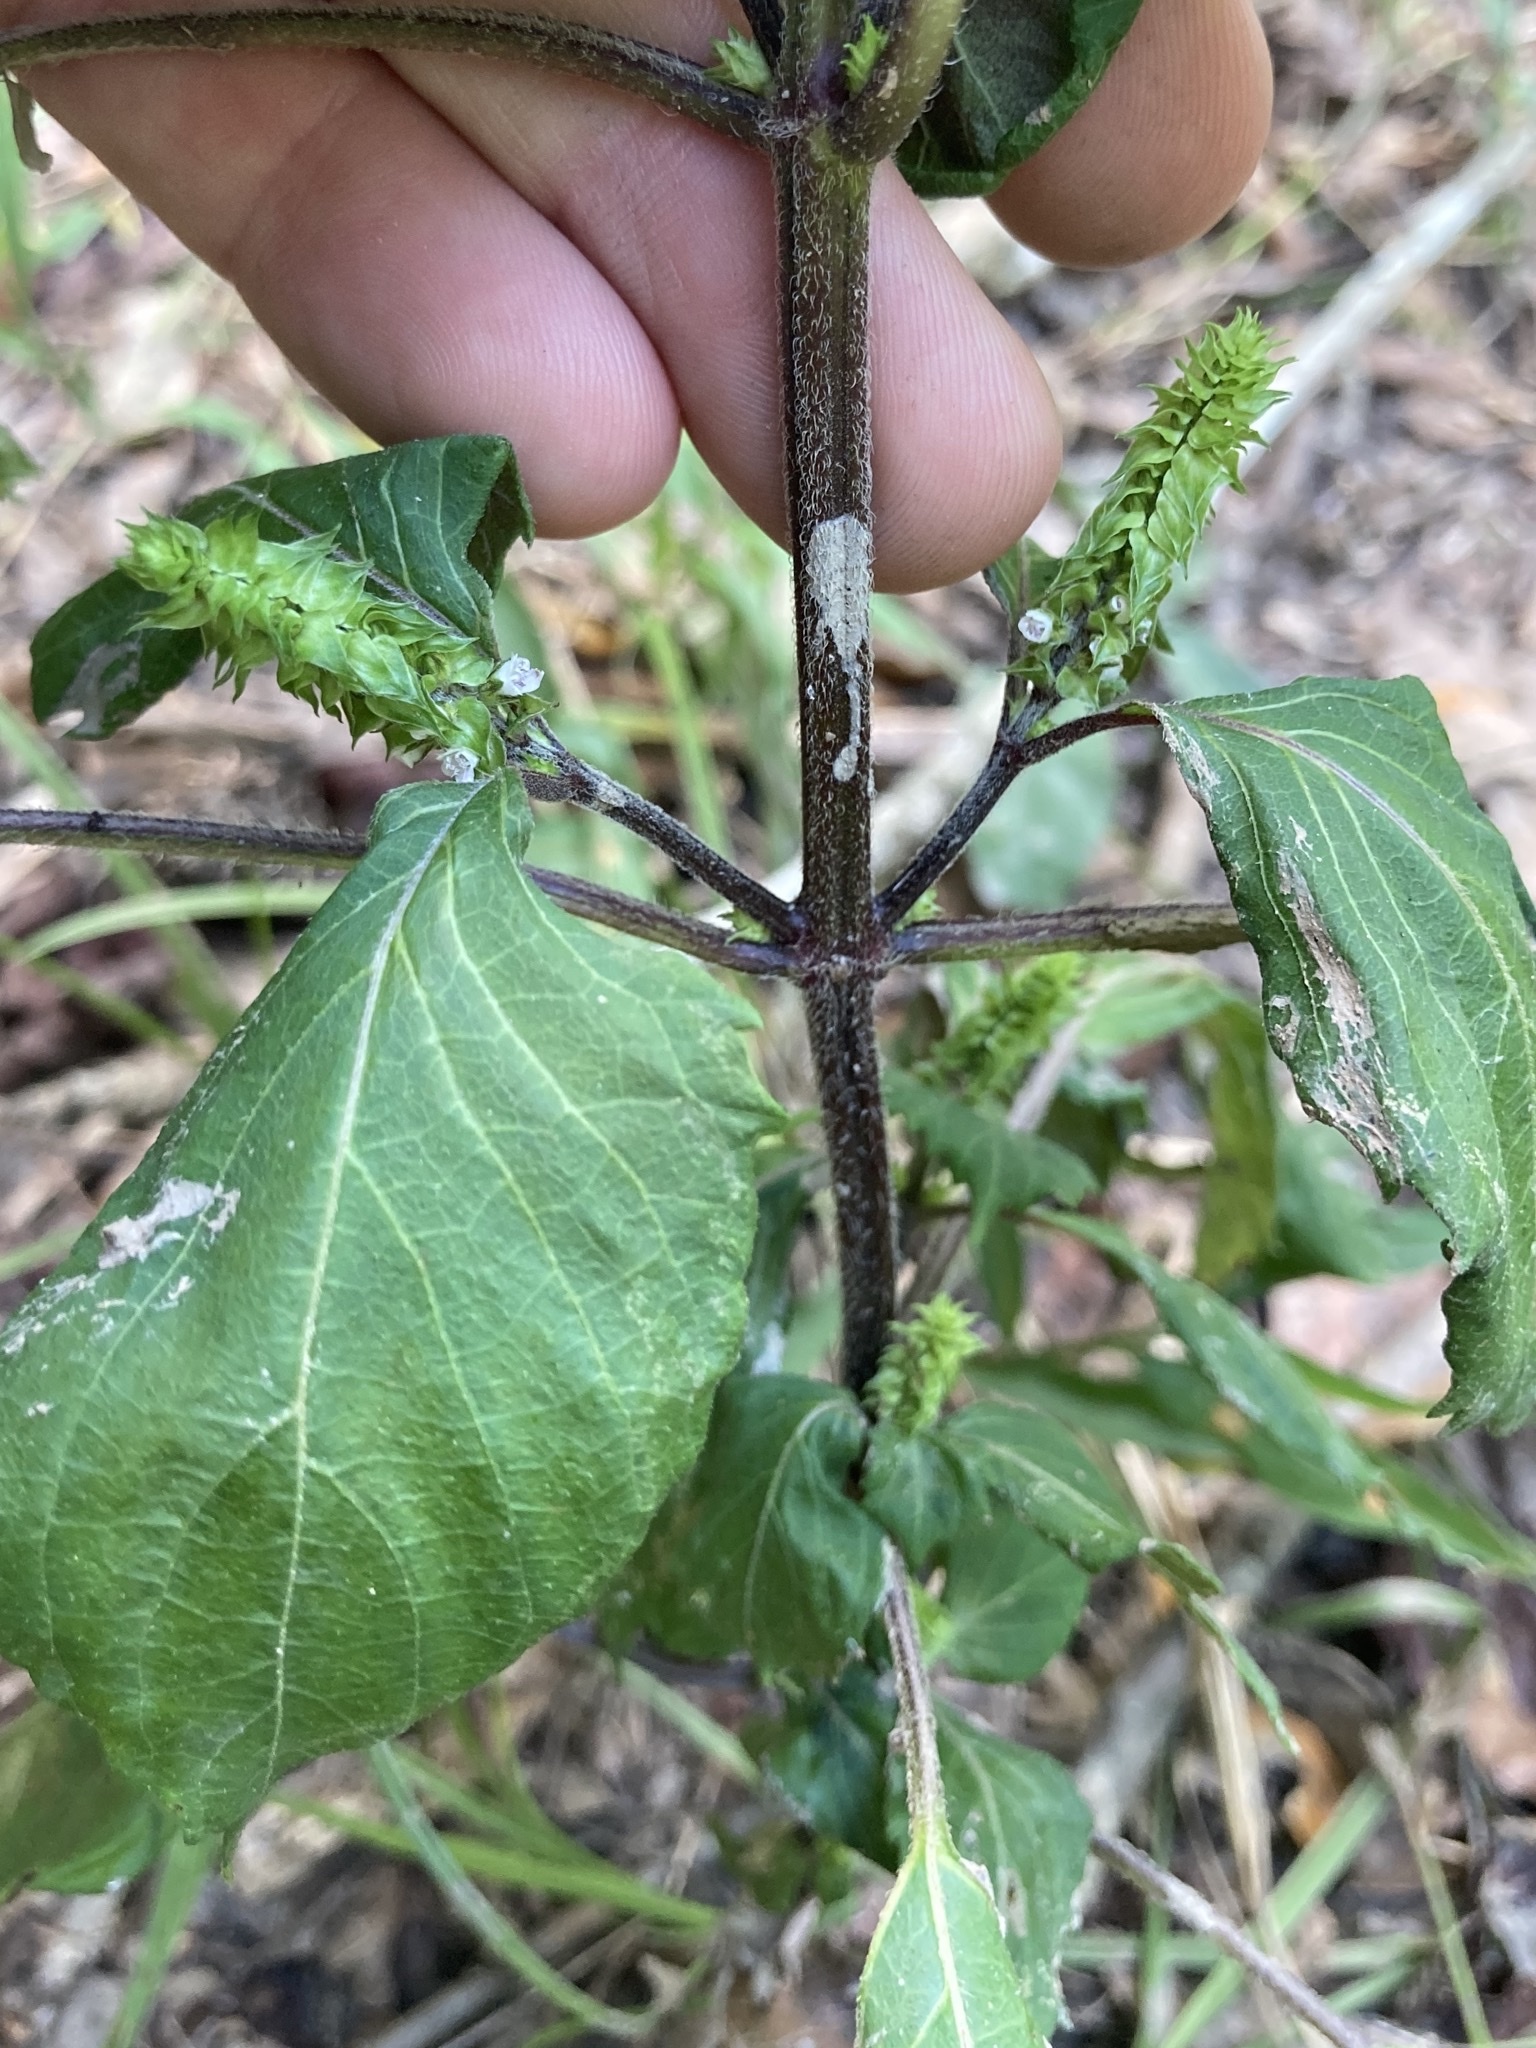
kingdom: Plantae
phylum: Tracheophyta
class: Magnoliopsida
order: Lamiales
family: Lamiaceae
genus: Perilla
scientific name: Perilla frutescens
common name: Perilla
